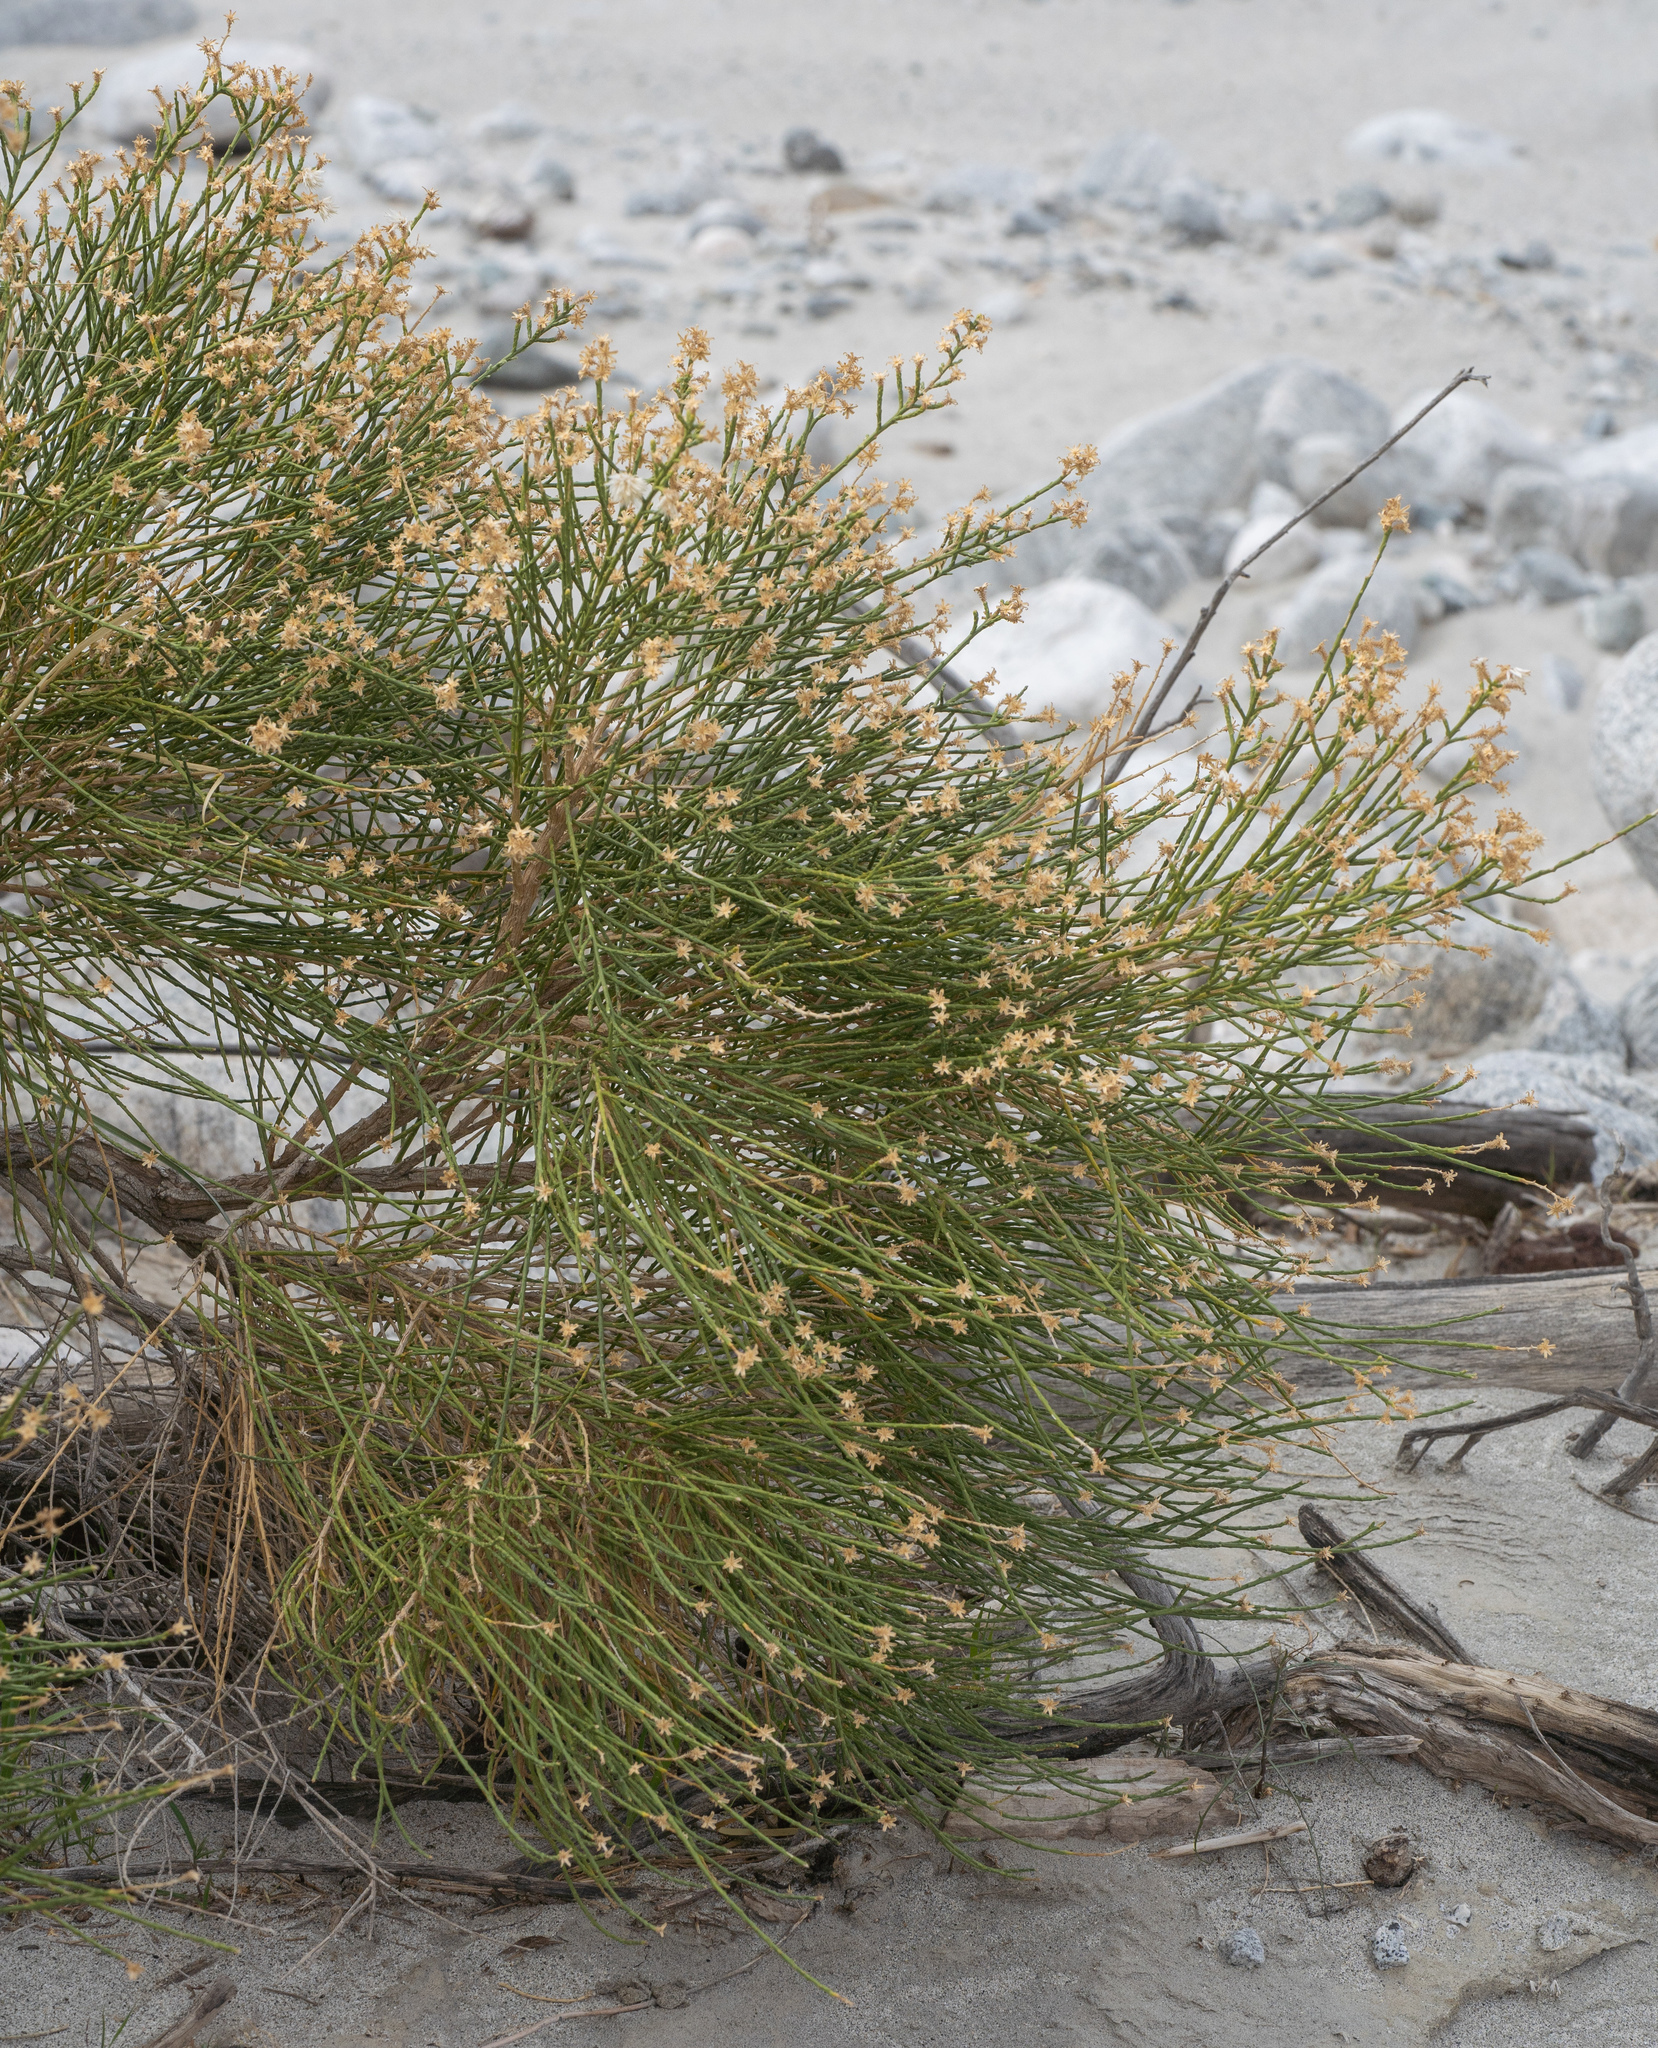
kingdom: Plantae
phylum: Tracheophyta
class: Magnoliopsida
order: Asterales
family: Asteraceae
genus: Lepidospartum
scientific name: Lepidospartum squamatum
